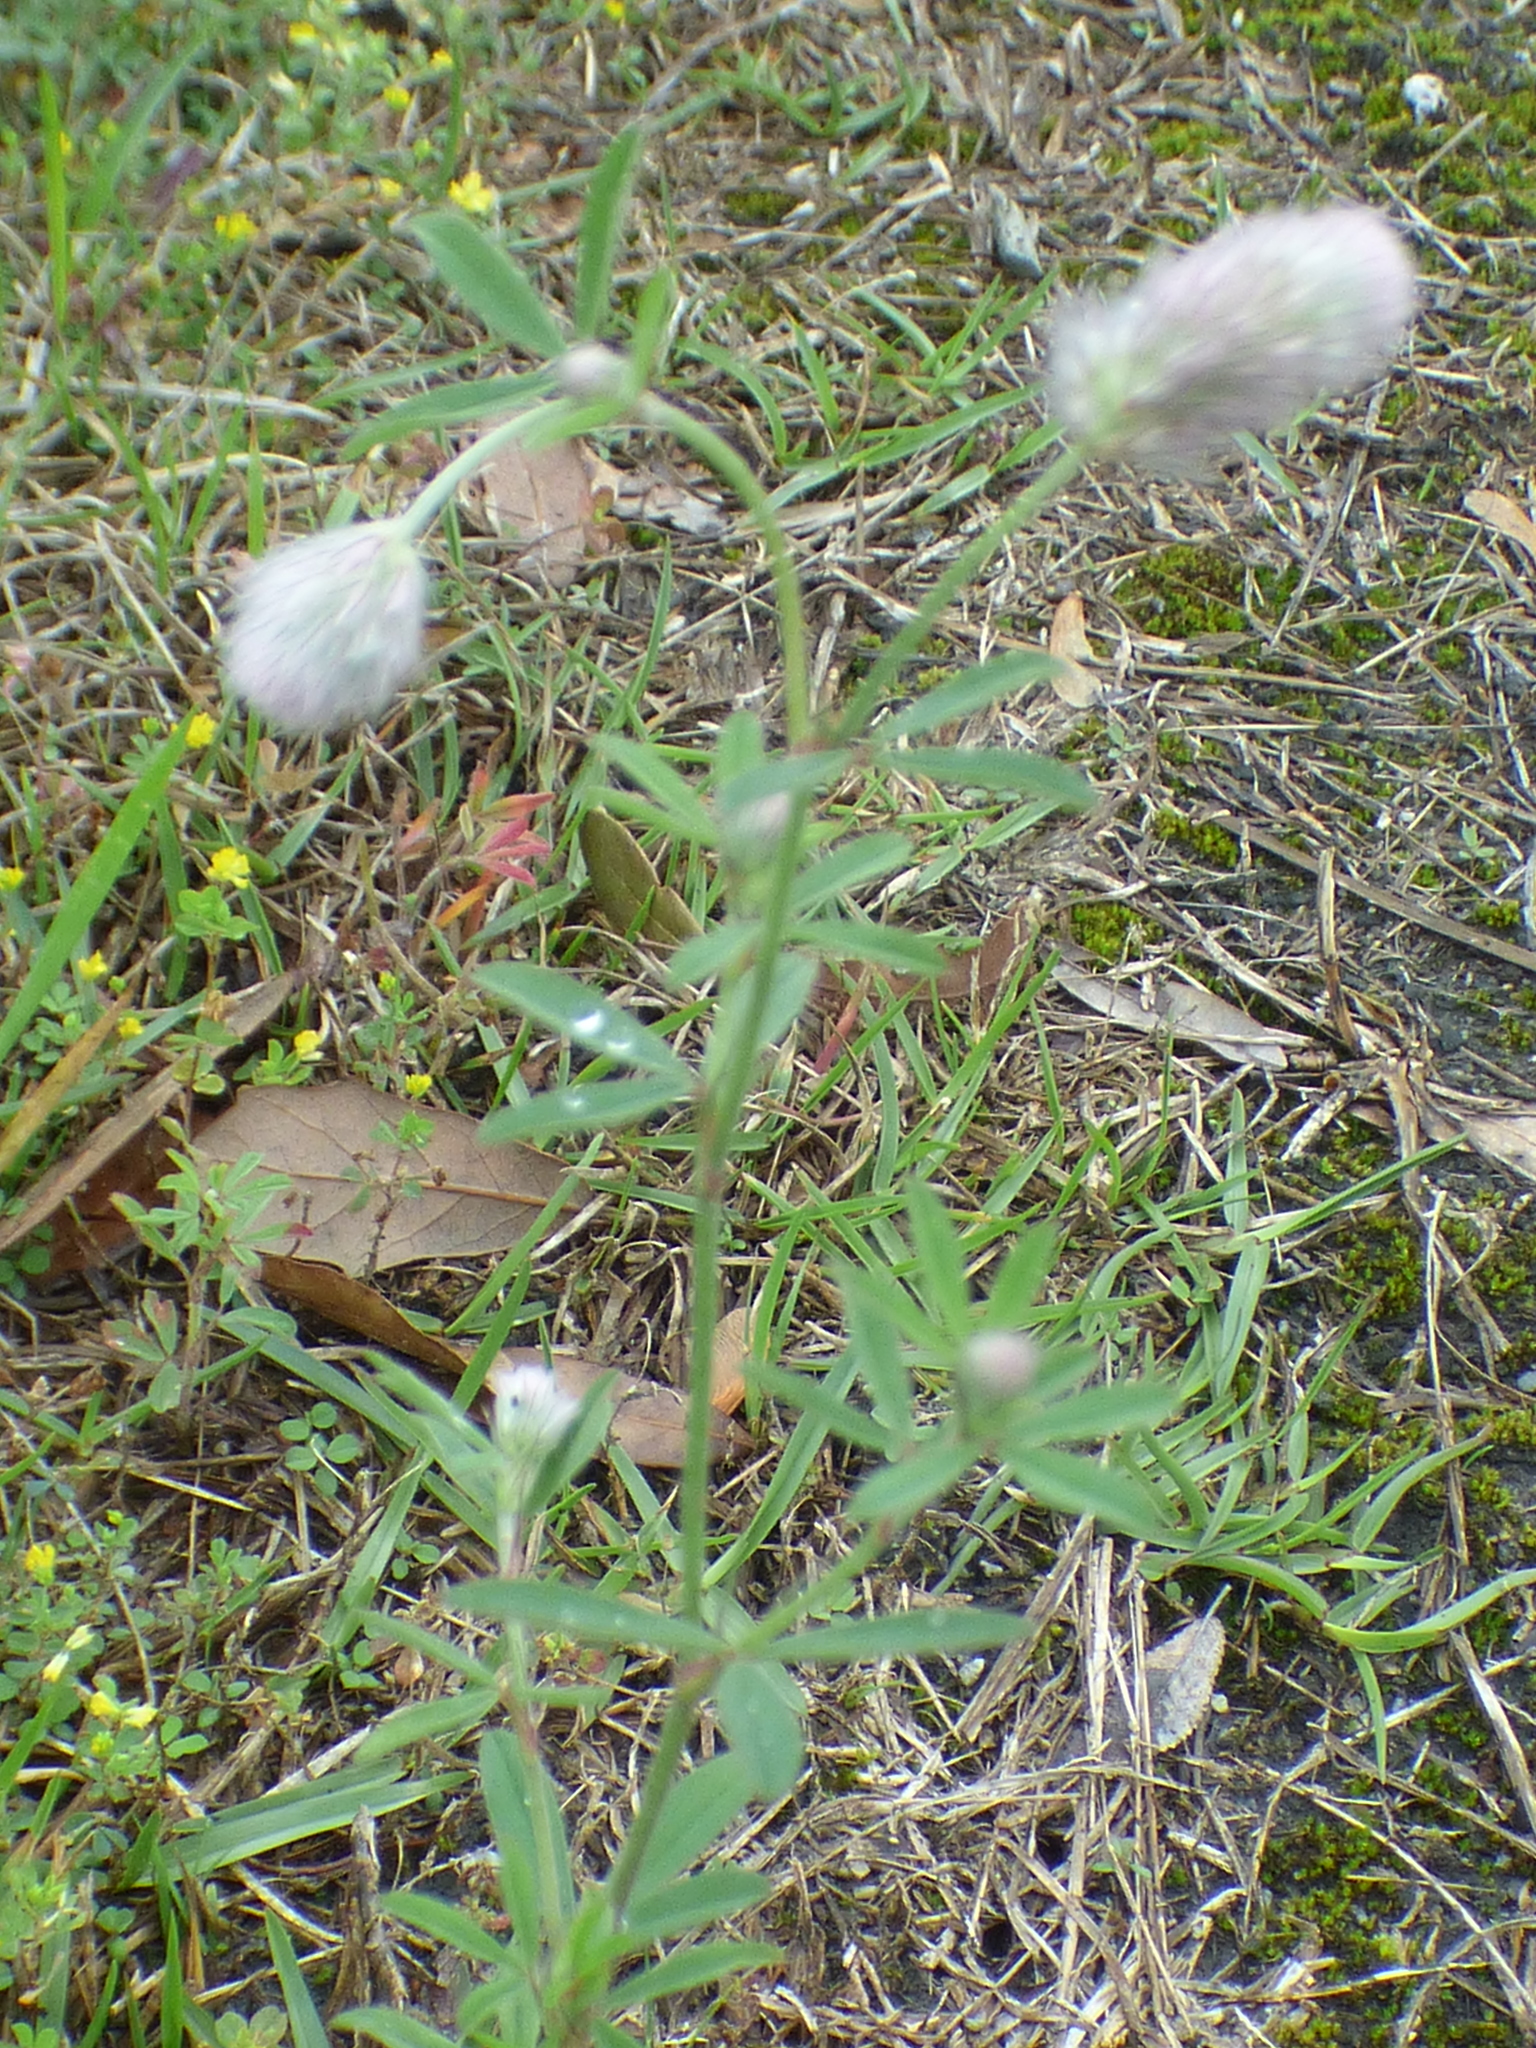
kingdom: Plantae
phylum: Tracheophyta
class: Magnoliopsida
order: Fabales
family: Fabaceae
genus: Trifolium
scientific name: Trifolium arvense
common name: Hare's-foot clover
